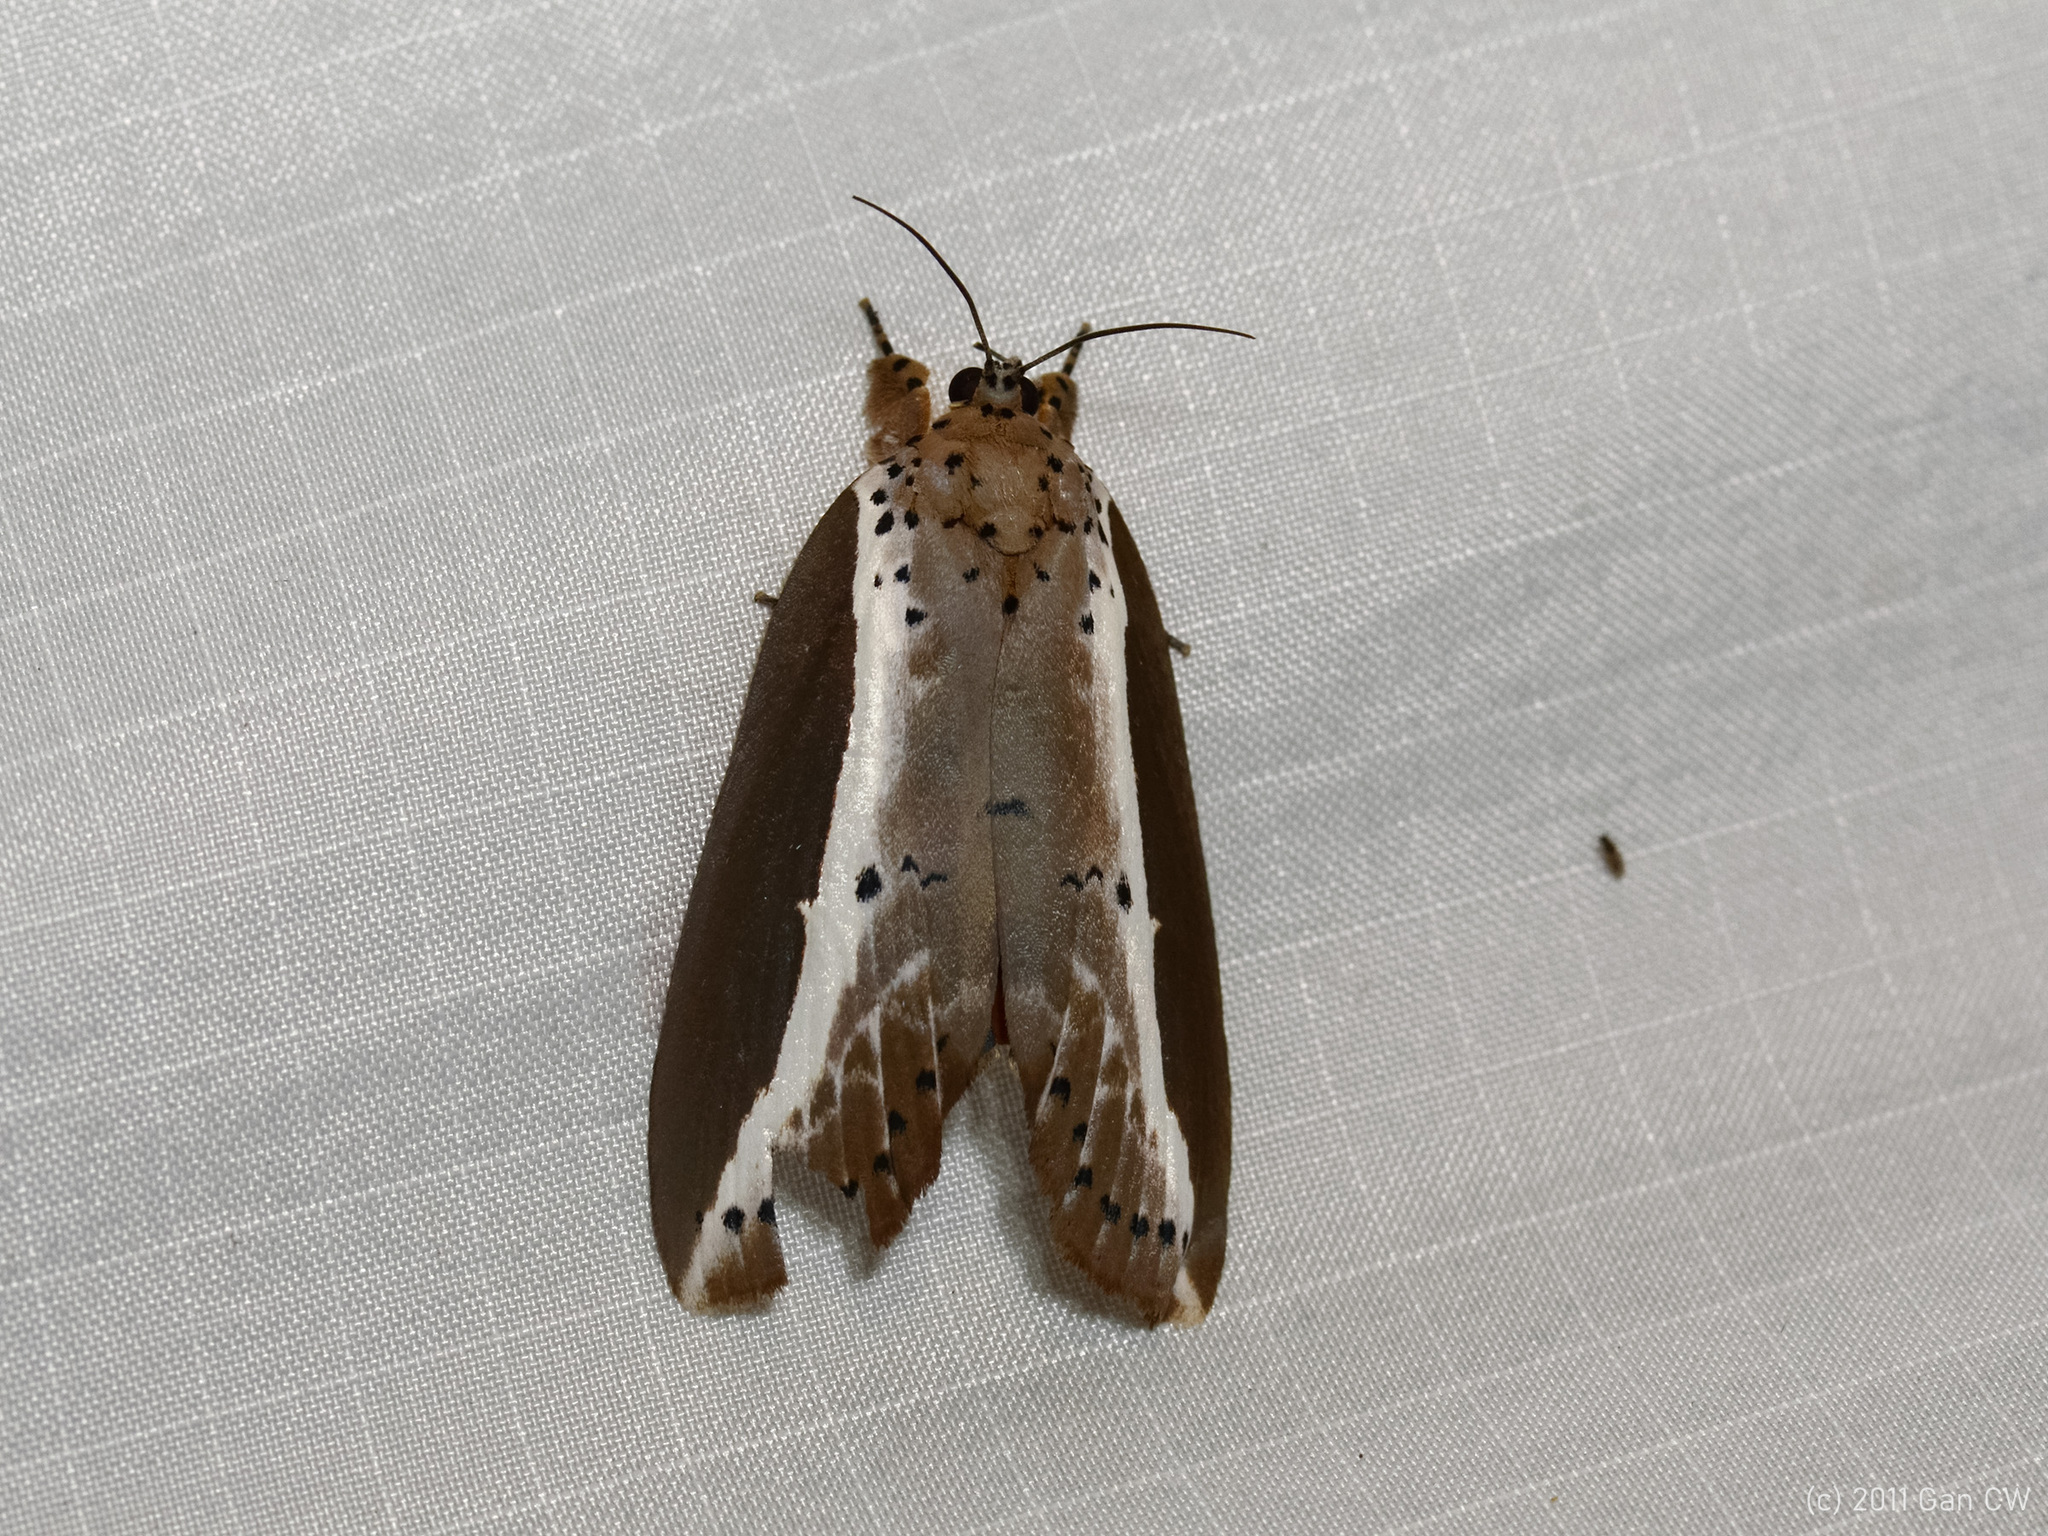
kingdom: Animalia
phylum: Arthropoda
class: Insecta
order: Lepidoptera
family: Nolidae
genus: Eligma
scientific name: Eligma
